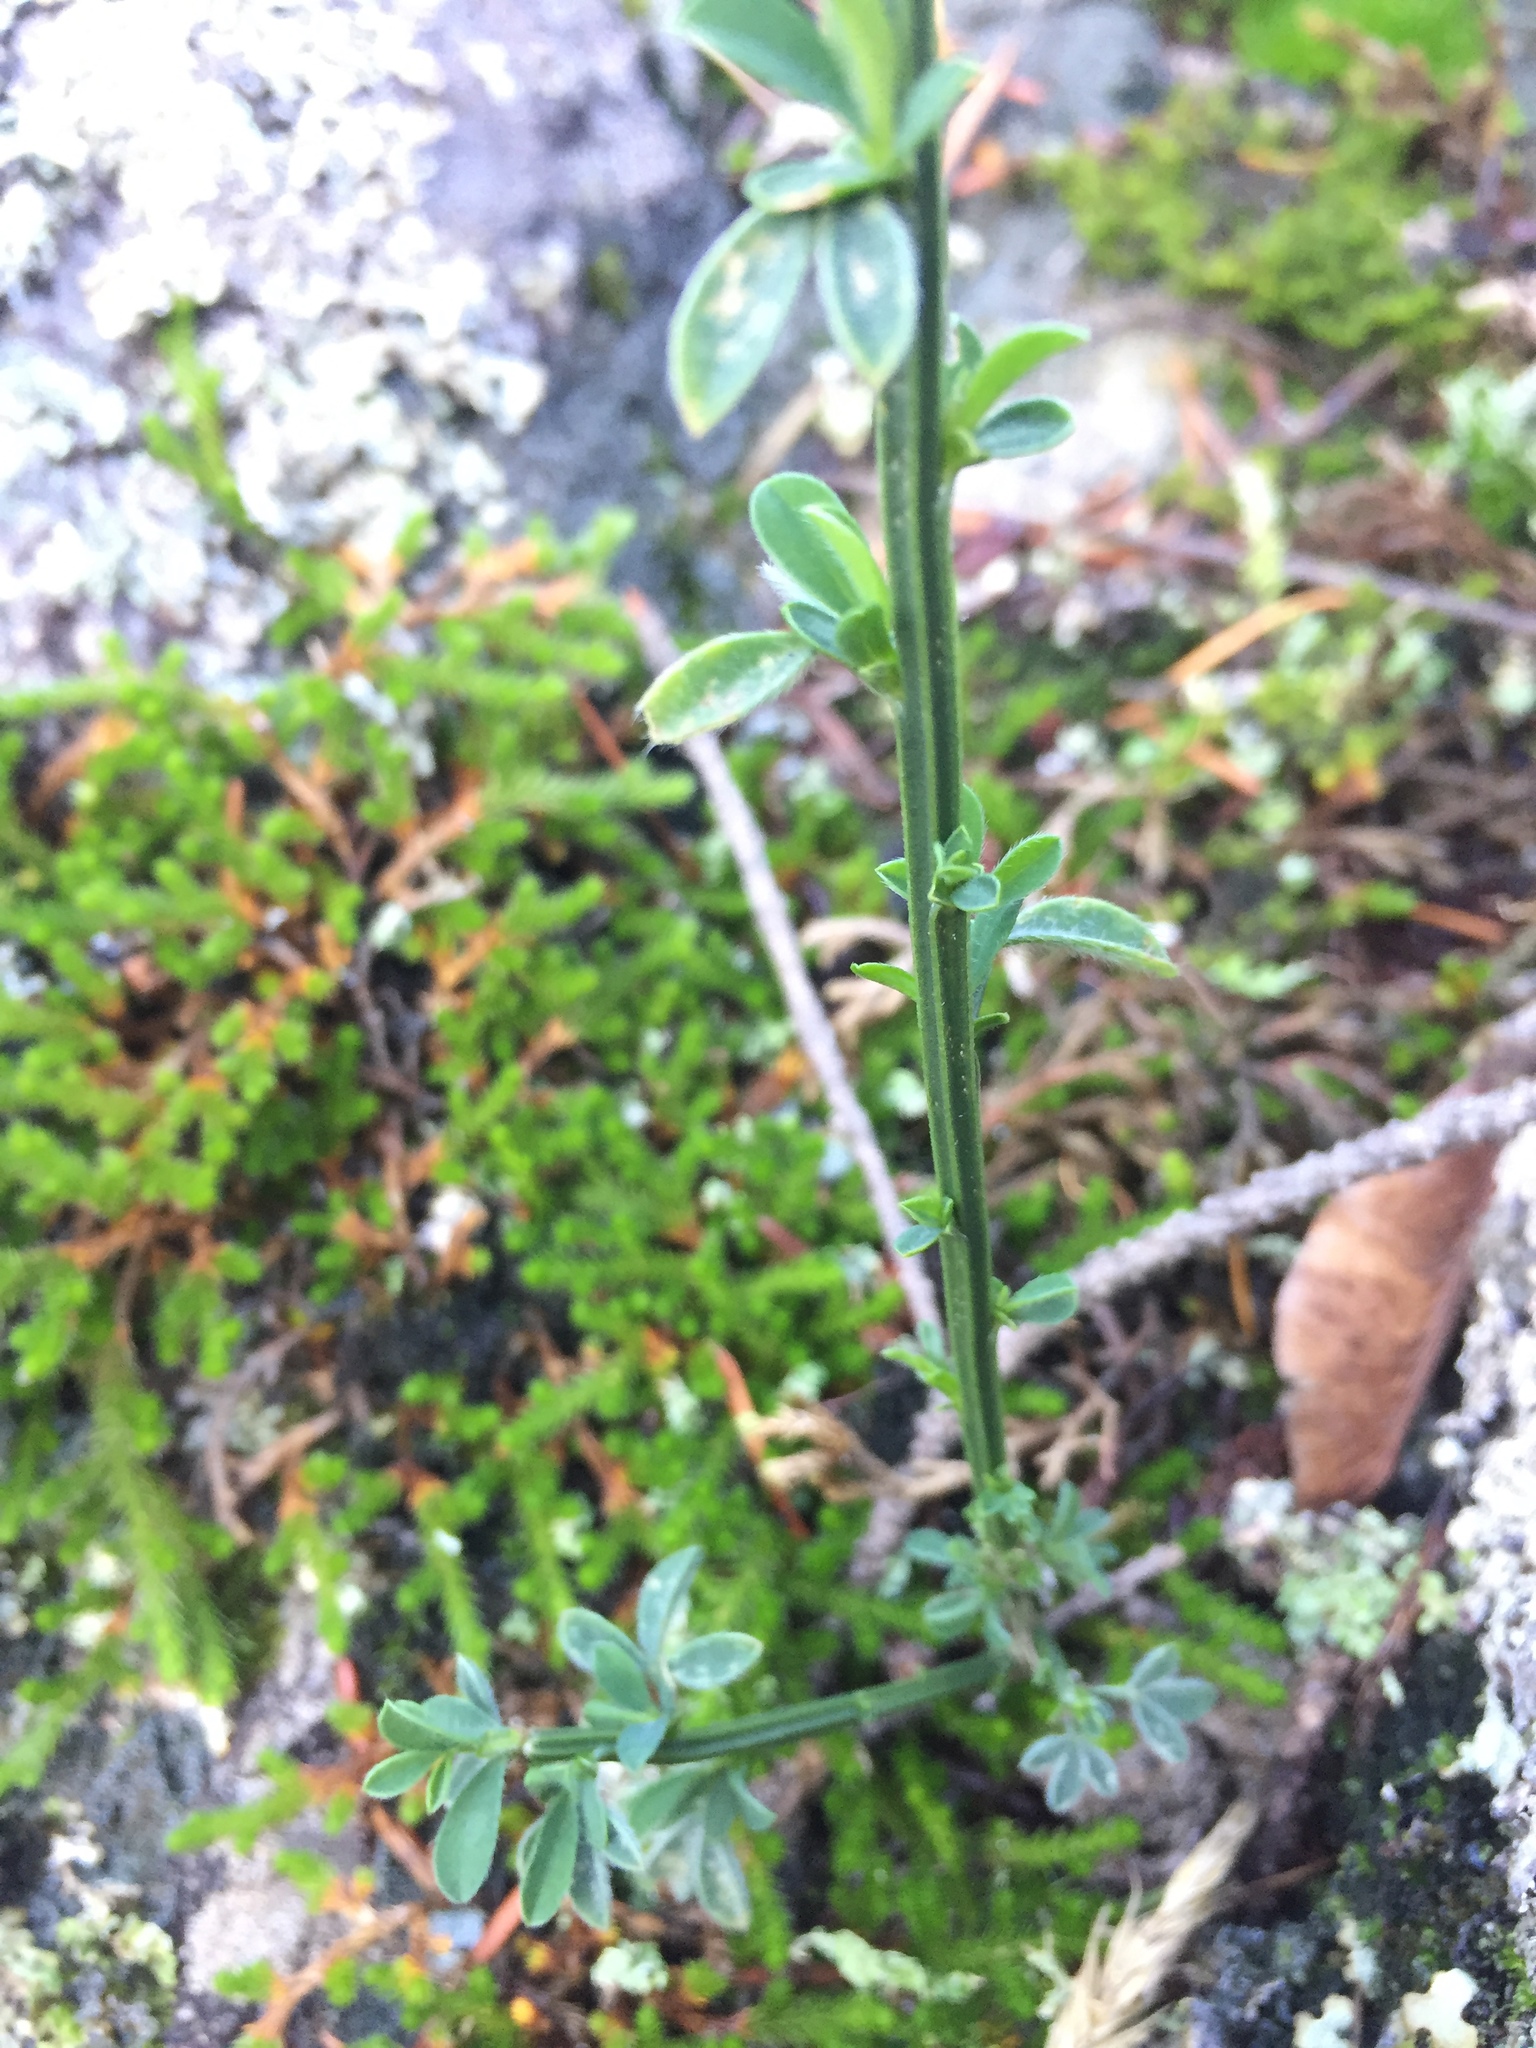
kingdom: Plantae
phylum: Tracheophyta
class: Magnoliopsida
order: Fabales
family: Fabaceae
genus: Cytisus
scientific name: Cytisus scoparius
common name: Scotch broom
